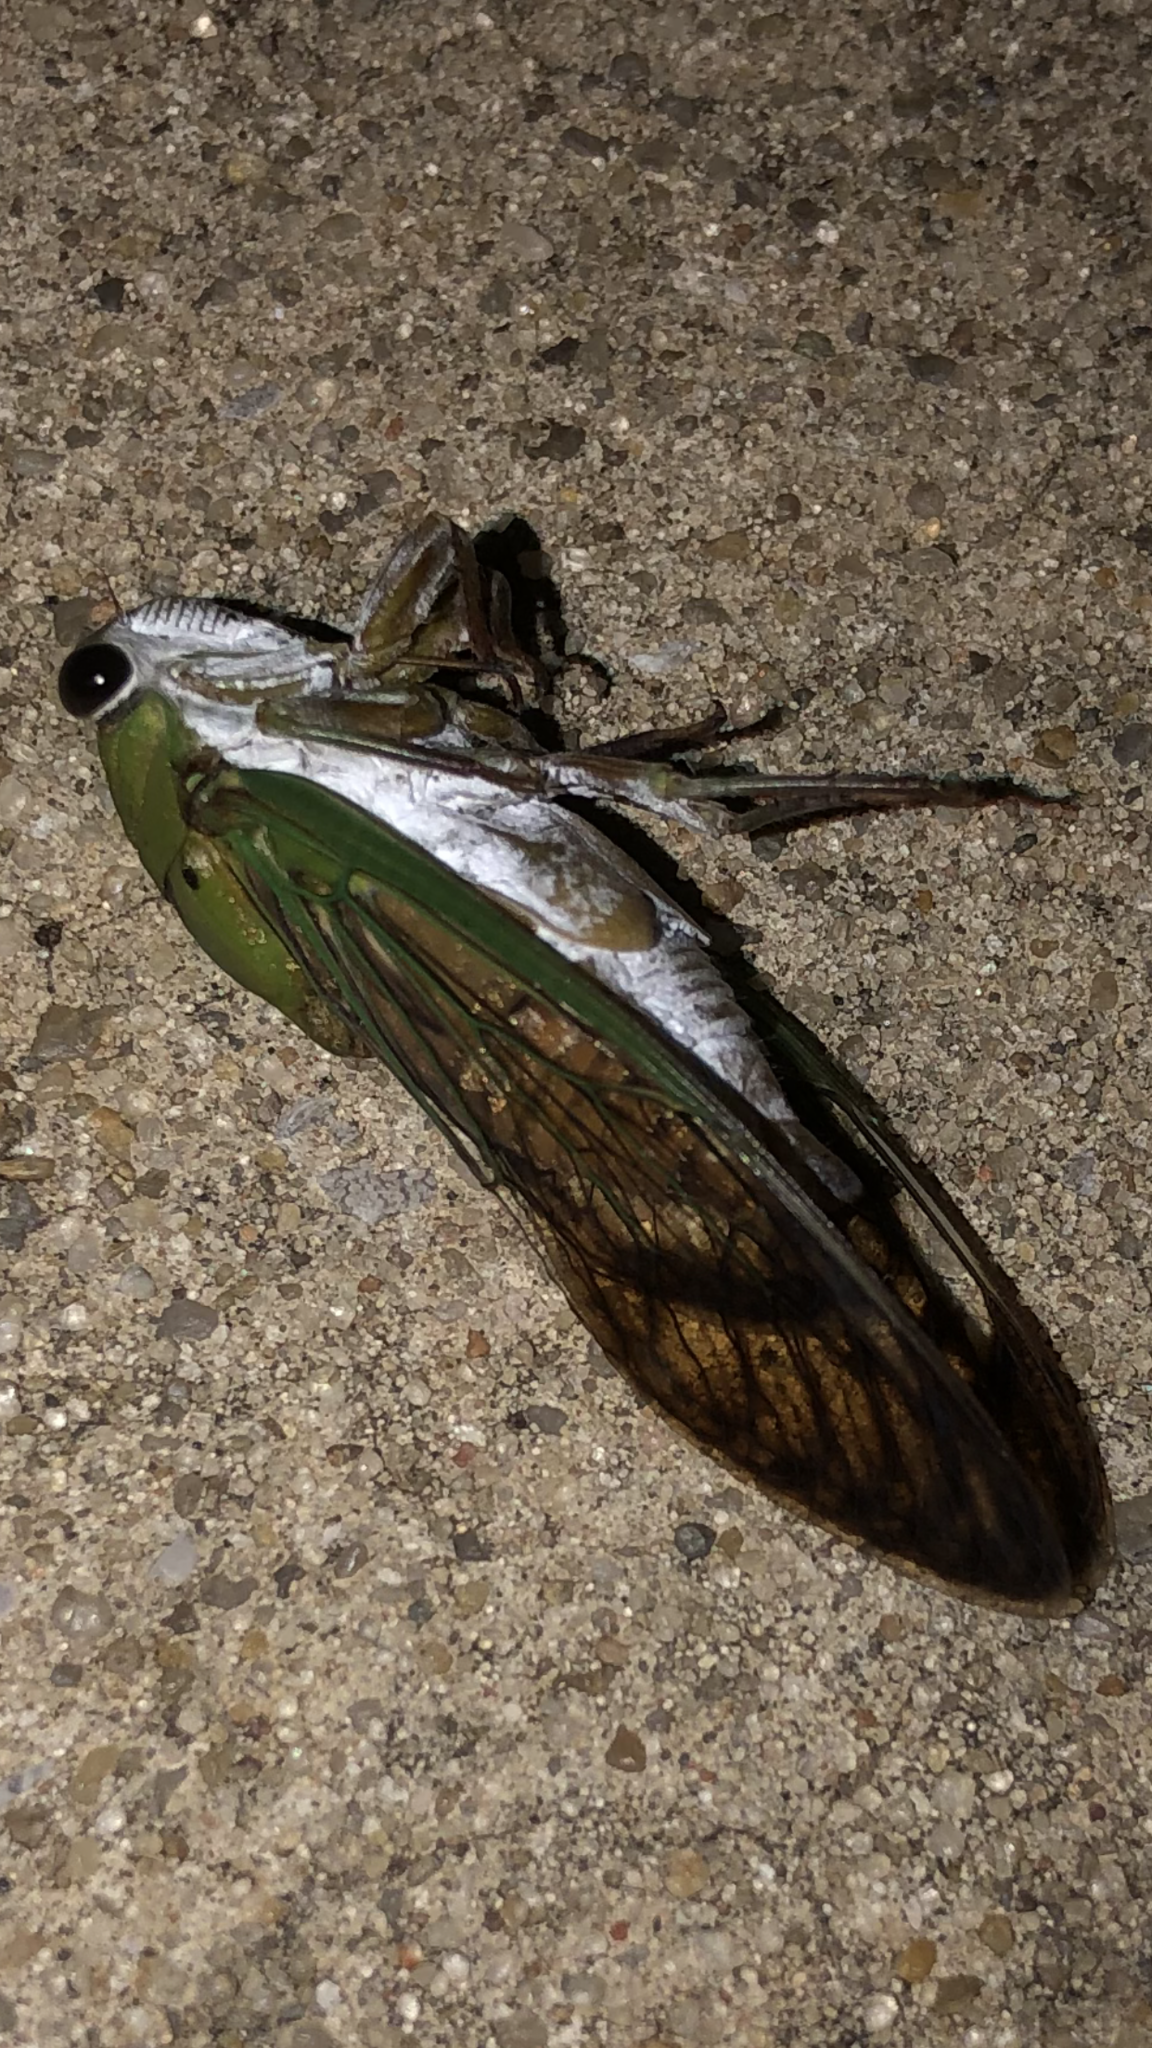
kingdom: Animalia
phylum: Arthropoda
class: Insecta
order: Hemiptera
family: Cicadidae
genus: Neotibicen
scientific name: Neotibicen superbus
